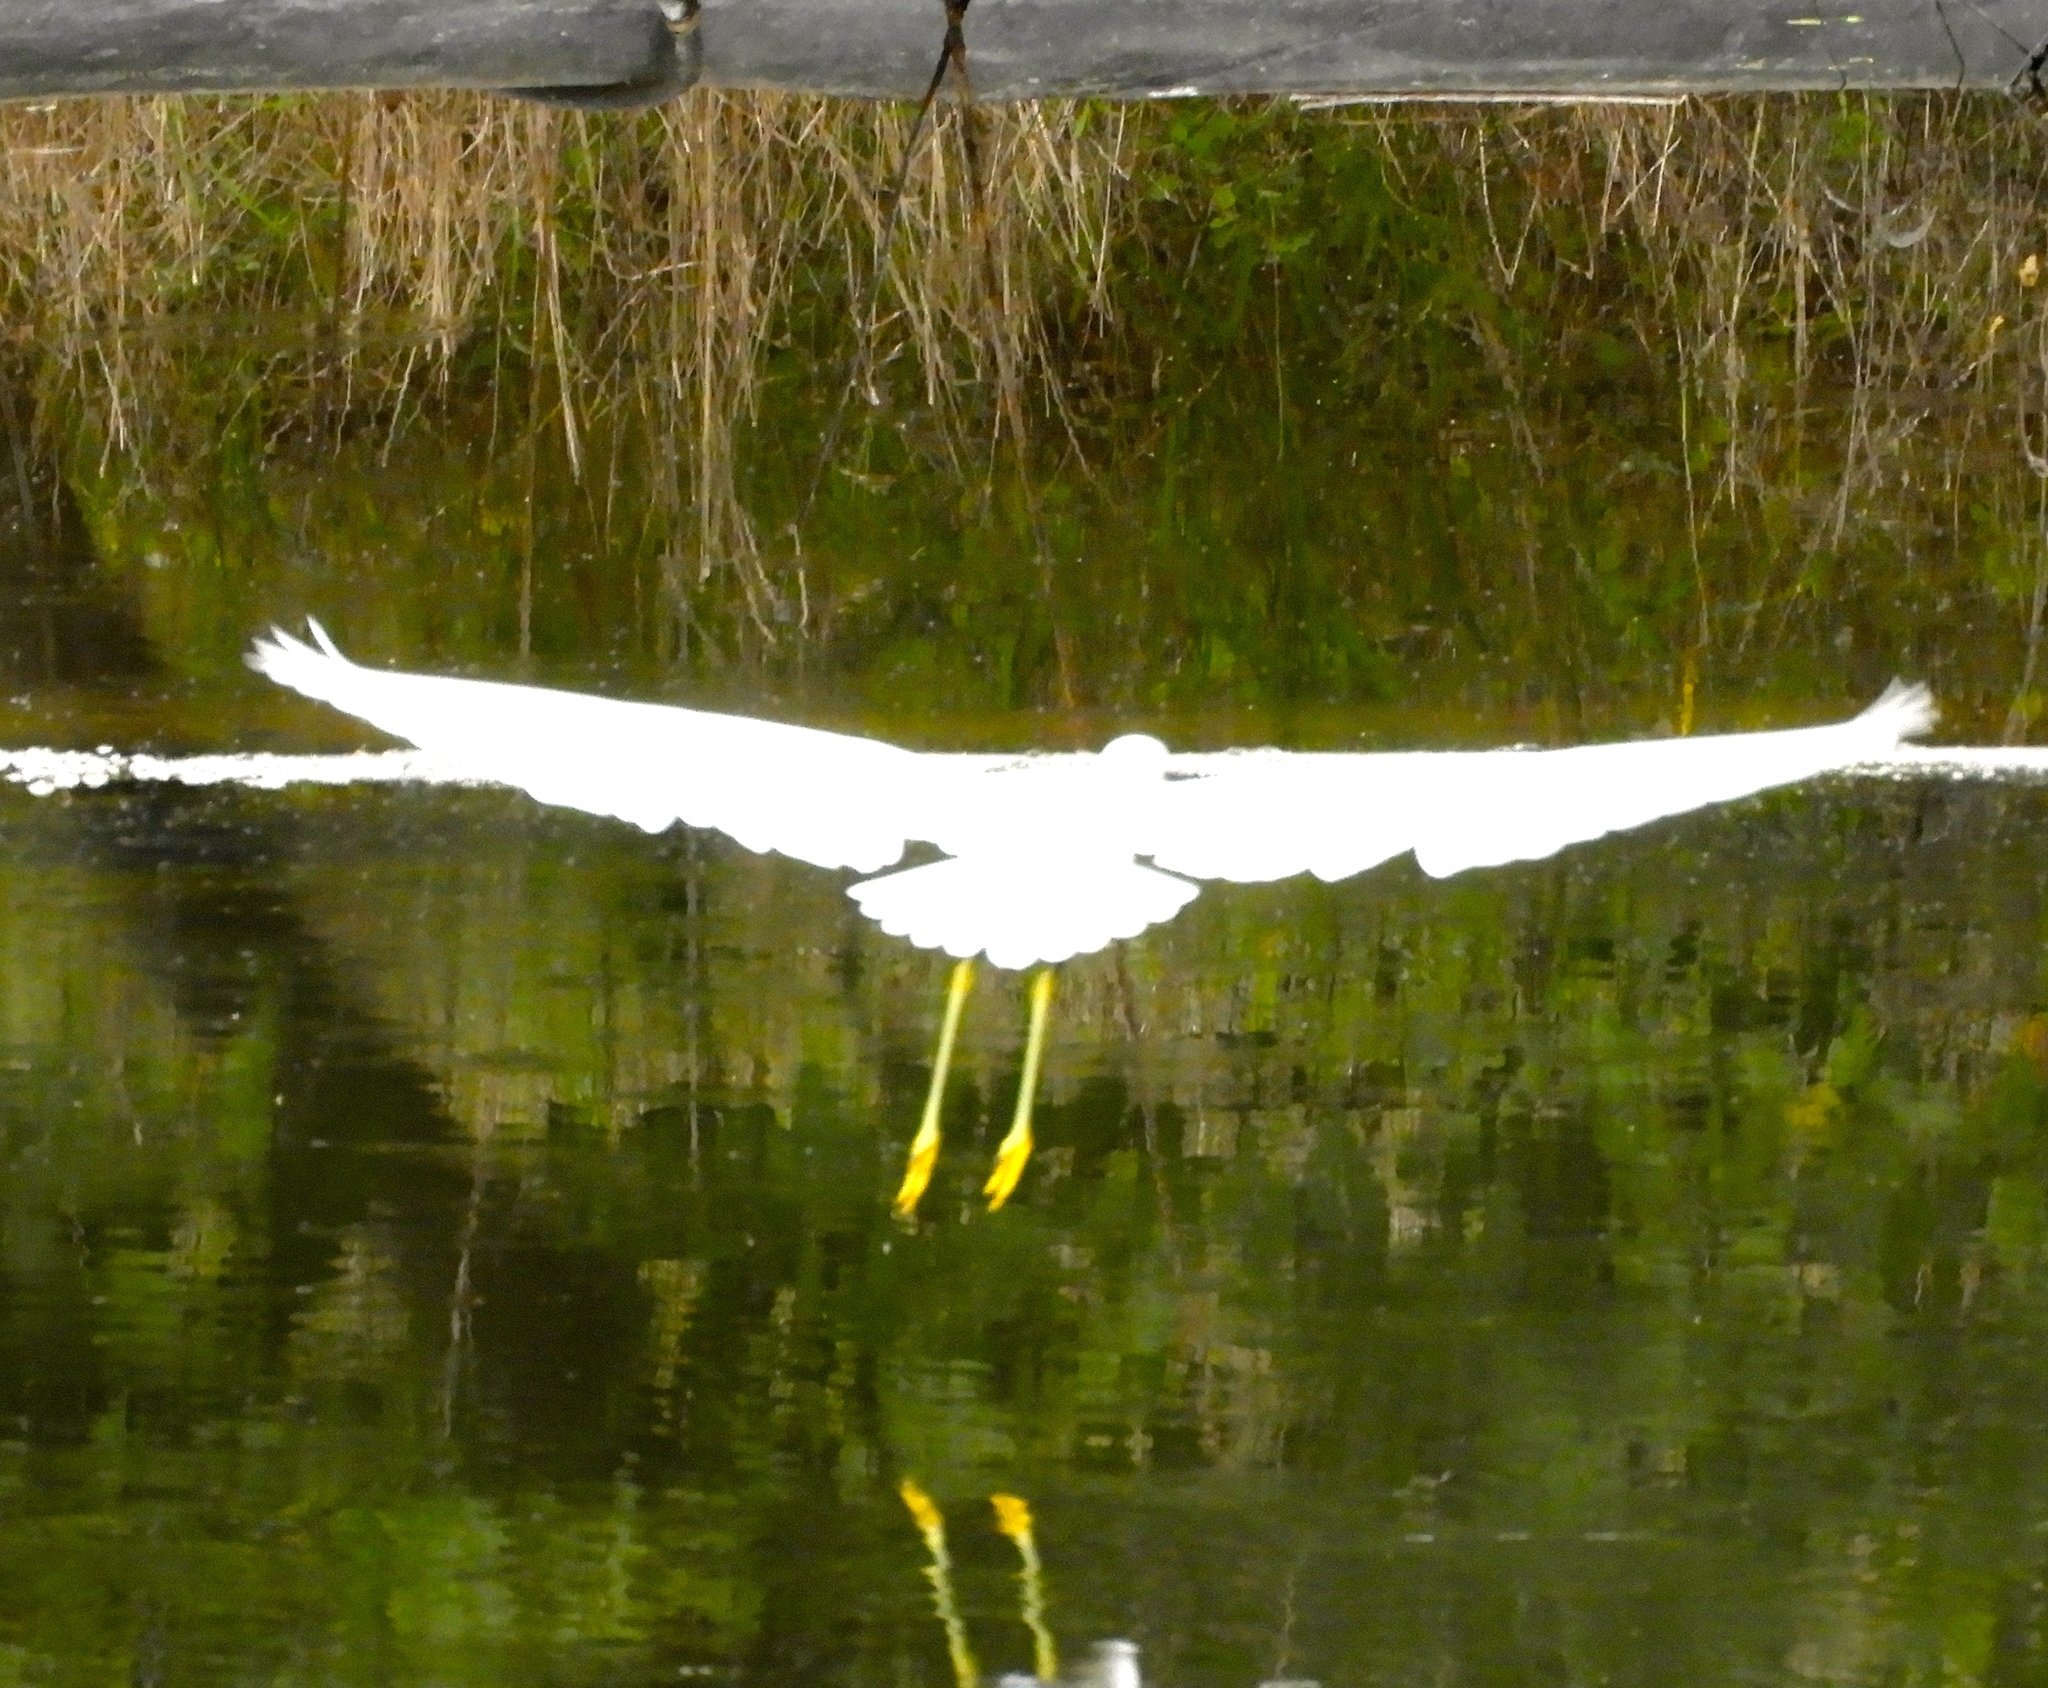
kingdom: Animalia
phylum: Chordata
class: Aves
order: Pelecaniformes
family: Ardeidae
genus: Egretta
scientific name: Egretta thula
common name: Snowy egret
